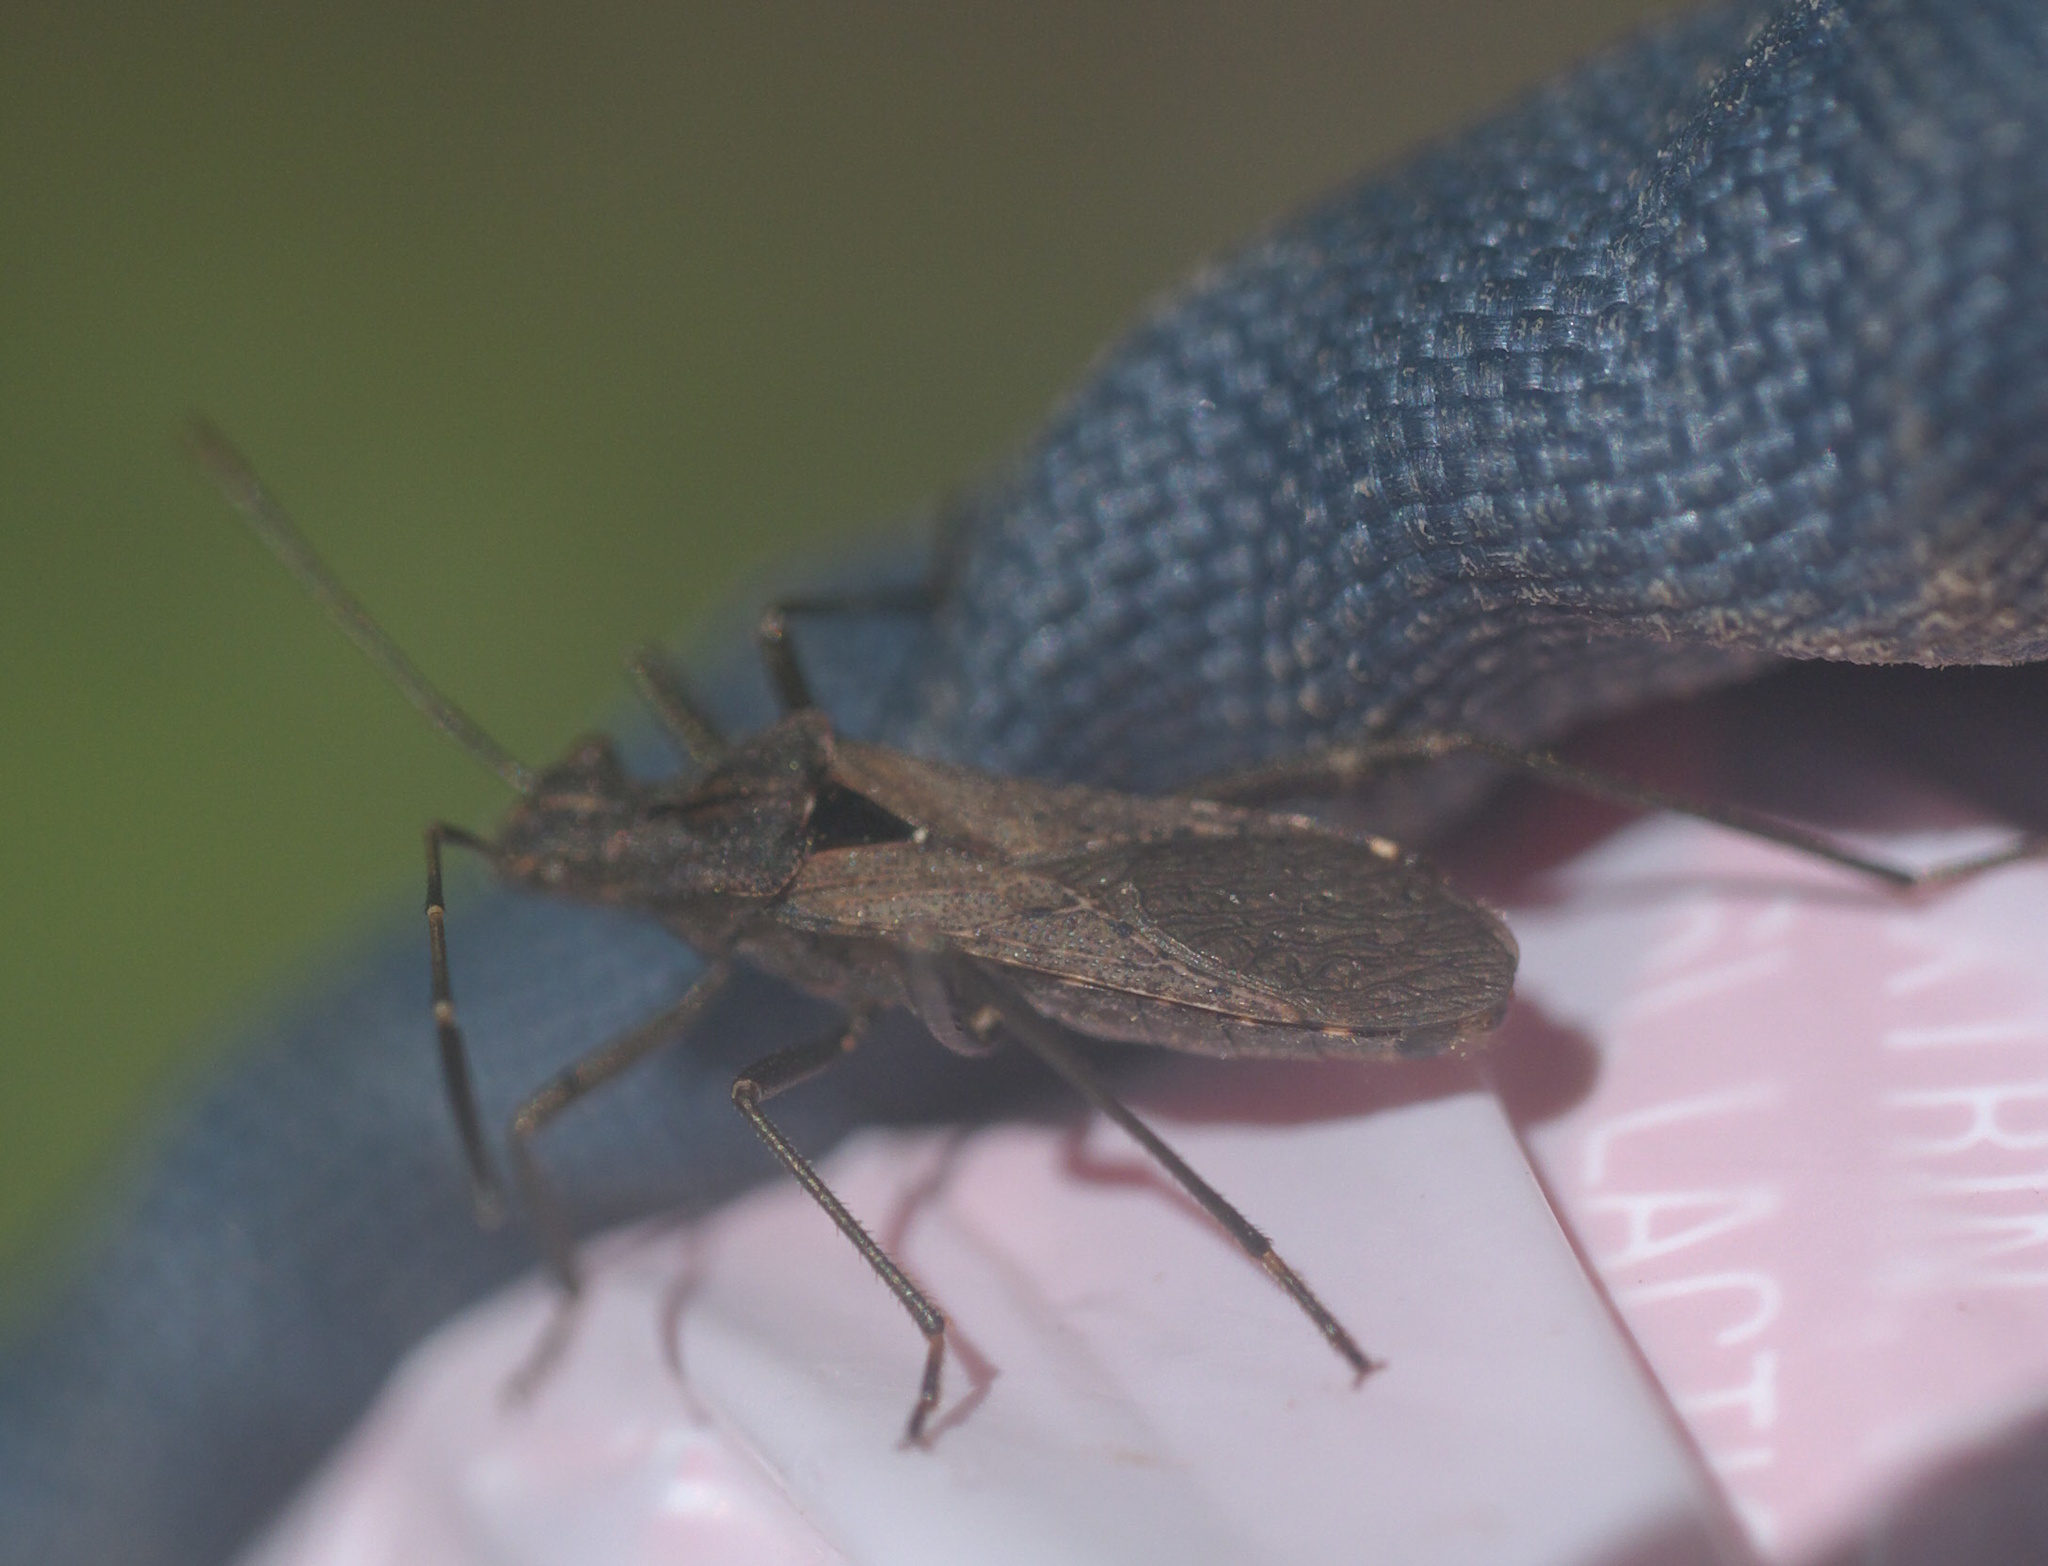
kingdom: Animalia
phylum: Arthropoda
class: Insecta
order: Hemiptera
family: Alydidae
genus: Alydus
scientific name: Alydus scutellatus
